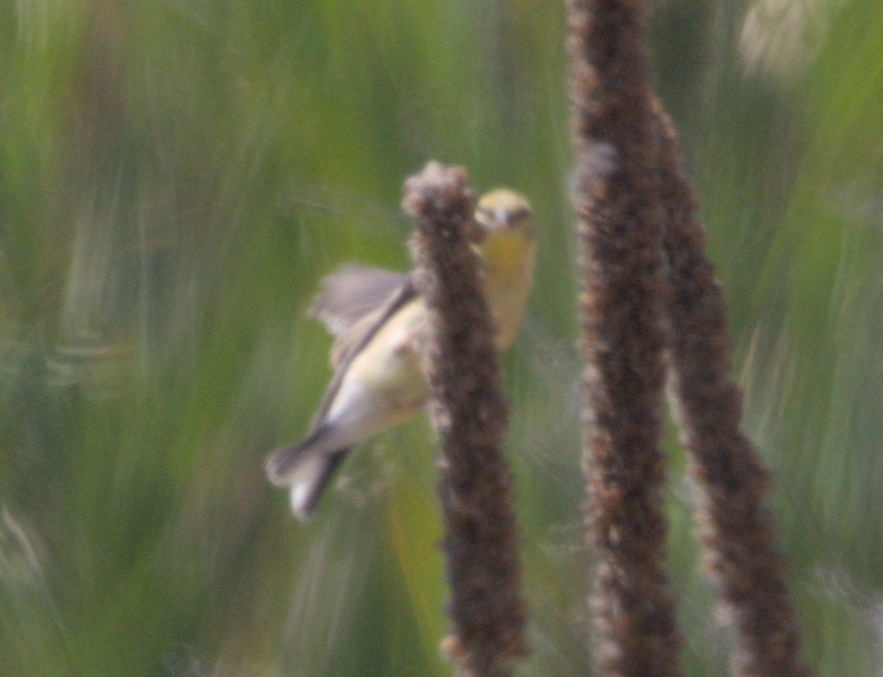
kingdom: Animalia
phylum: Chordata
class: Aves
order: Passeriformes
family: Fringillidae
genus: Spinus
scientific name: Spinus tristis
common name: American goldfinch
